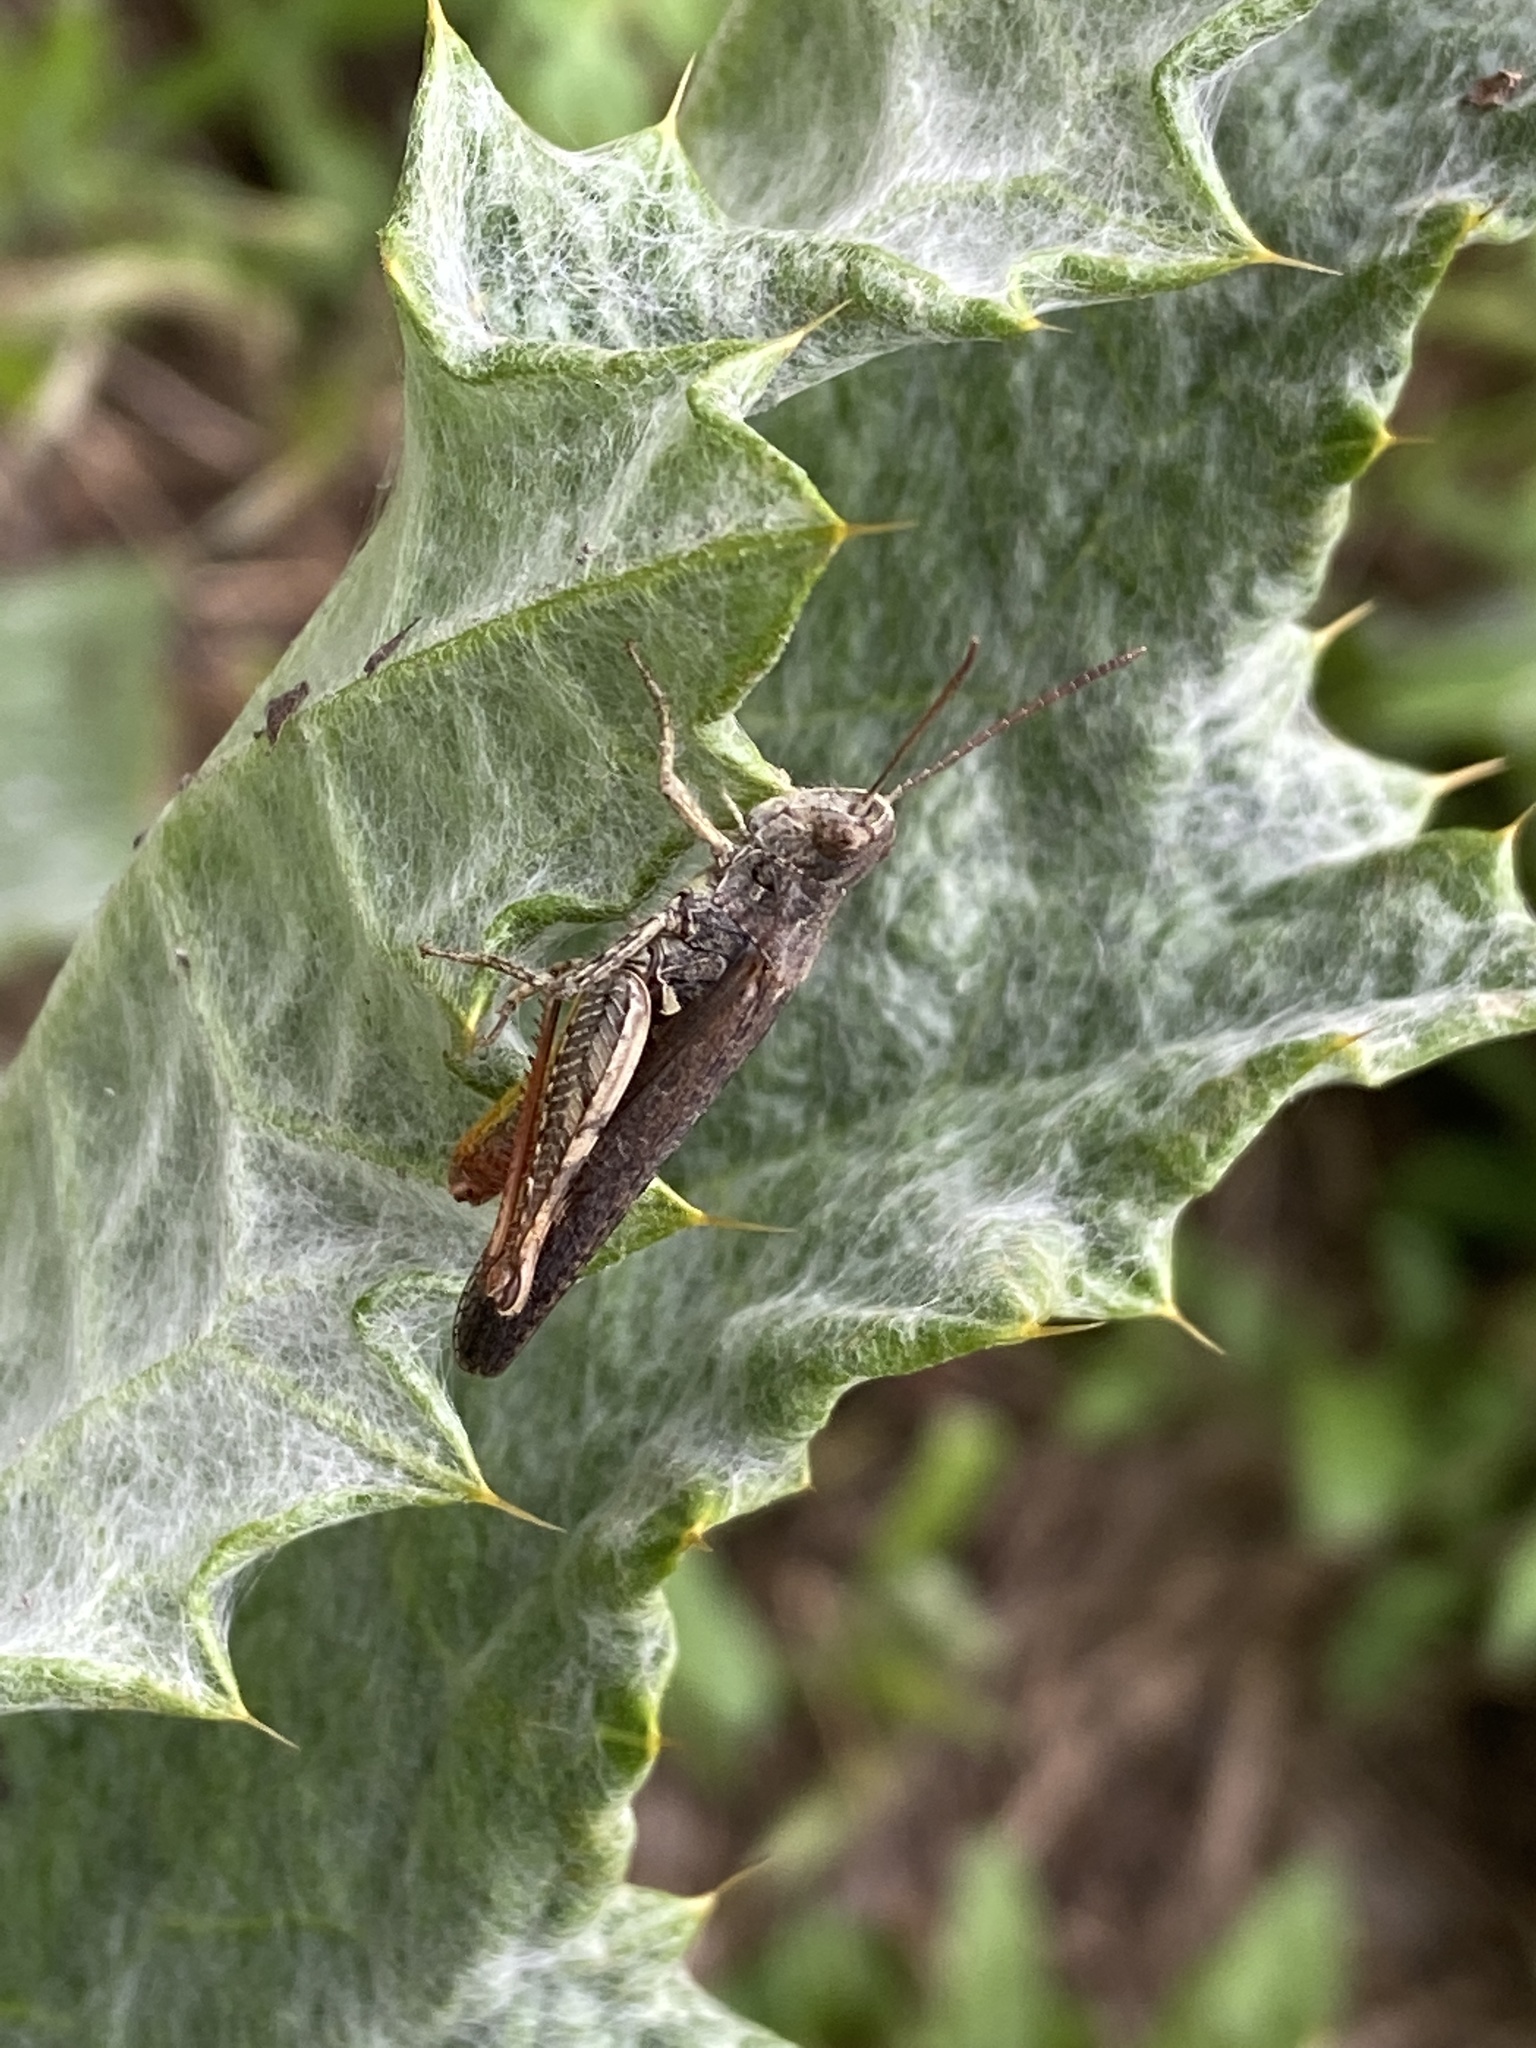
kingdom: Animalia
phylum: Arthropoda
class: Insecta
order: Orthoptera
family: Acrididae
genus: Chorthippus
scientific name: Chorthippus brunneus
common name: Field grasshopper
